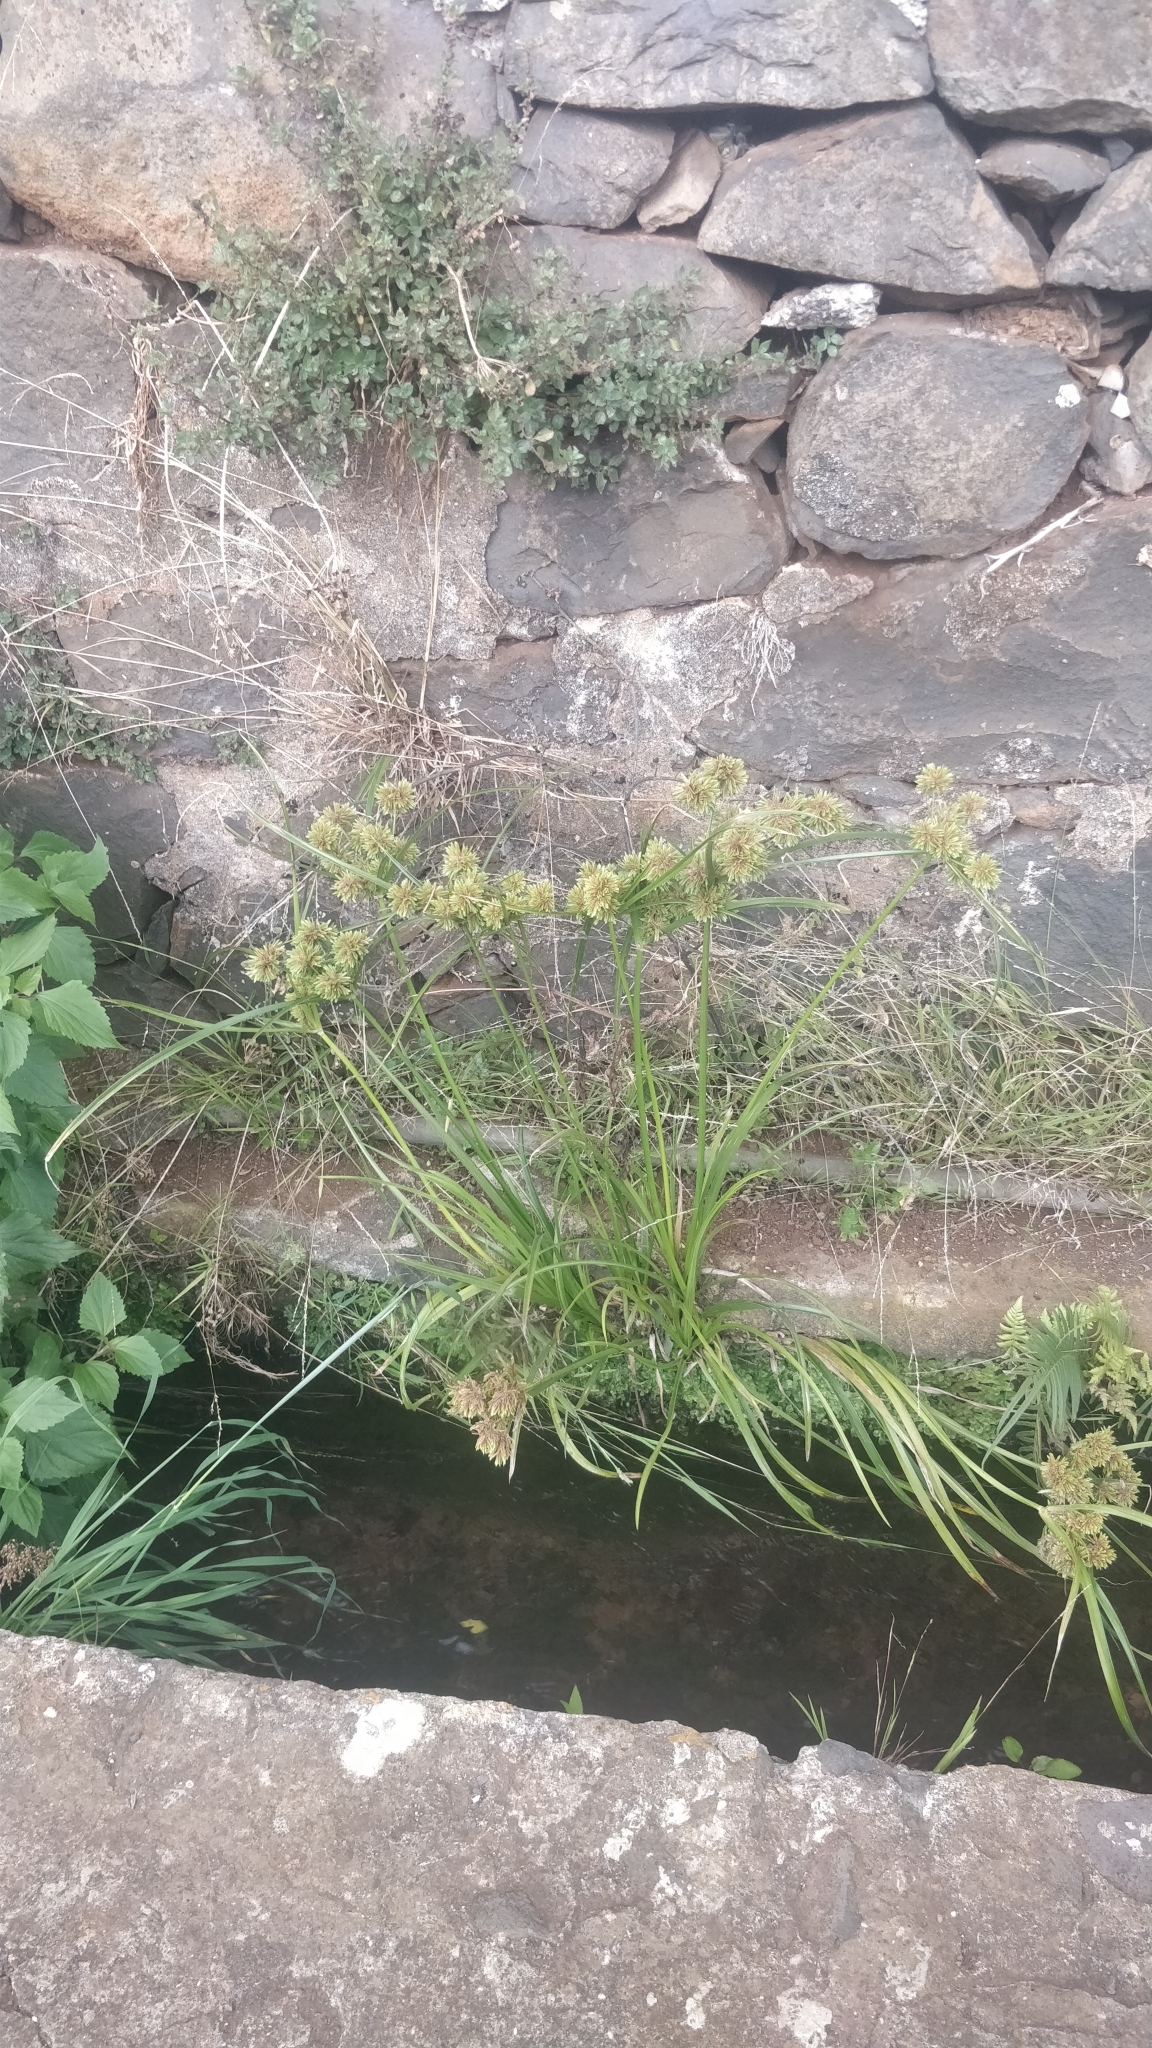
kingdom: Plantae
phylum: Tracheophyta
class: Liliopsida
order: Poales
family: Cyperaceae
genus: Cyperus
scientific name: Cyperus eragrostis
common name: Tall flatsedge
